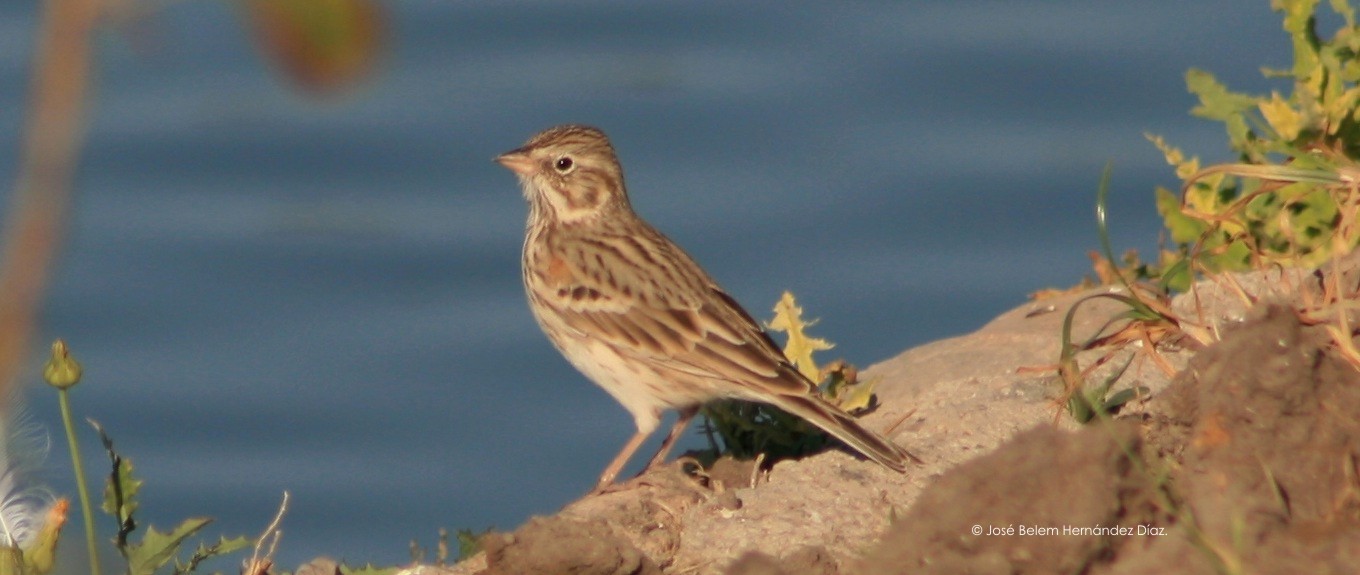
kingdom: Animalia
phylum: Chordata
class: Aves
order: Passeriformes
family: Passerellidae
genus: Pooecetes
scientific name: Pooecetes gramineus
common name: Vesper sparrow
